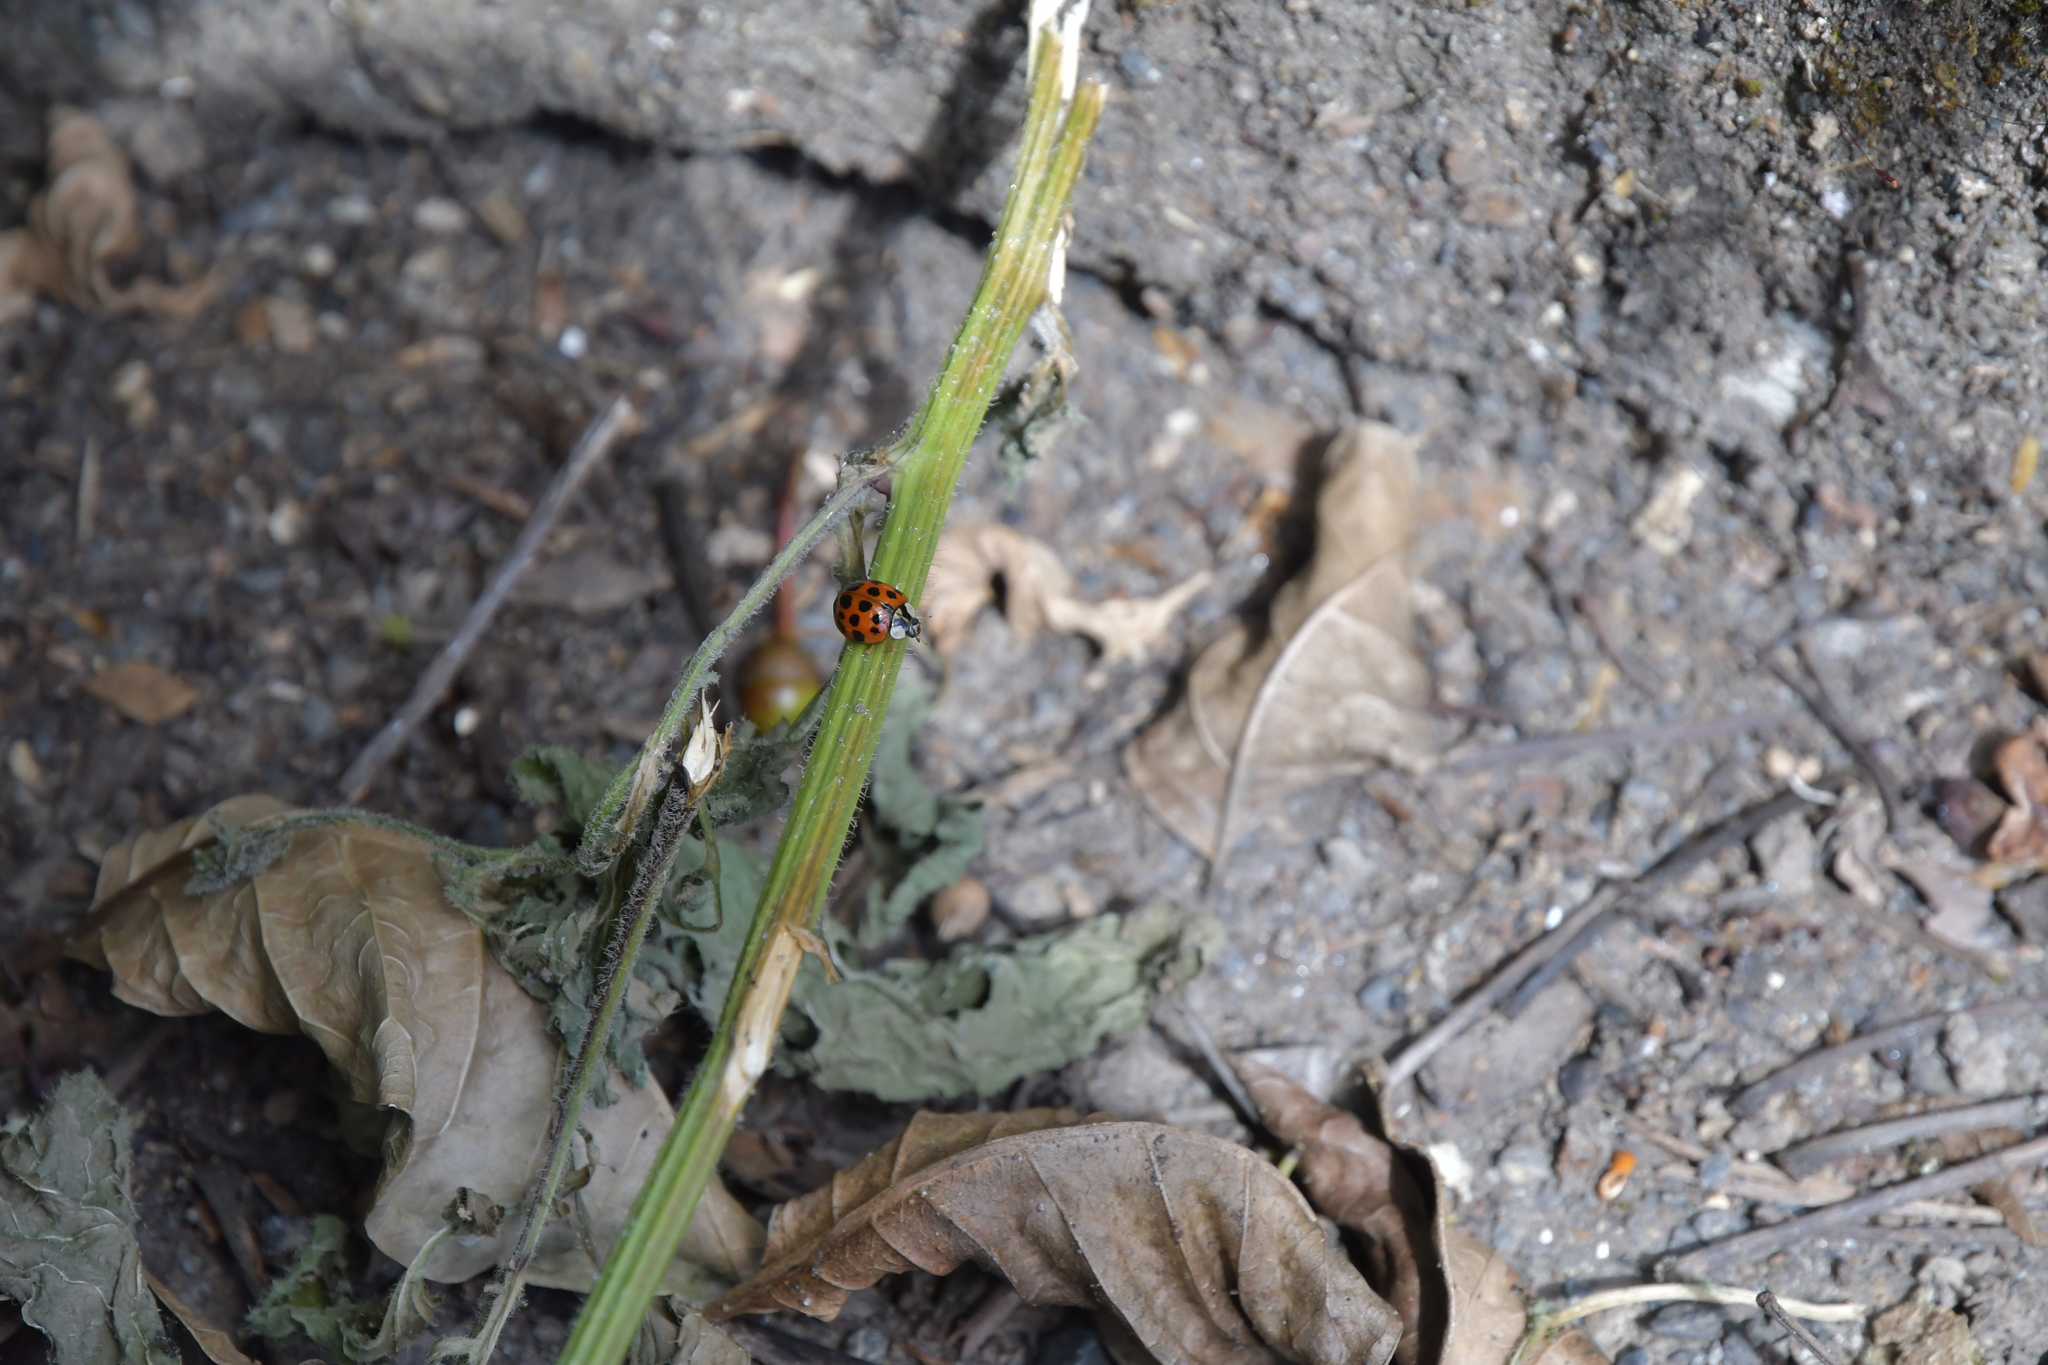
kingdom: Animalia
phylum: Arthropoda
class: Insecta
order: Coleoptera
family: Coccinellidae
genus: Harmonia
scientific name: Harmonia axyridis
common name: Harlequin ladybird
